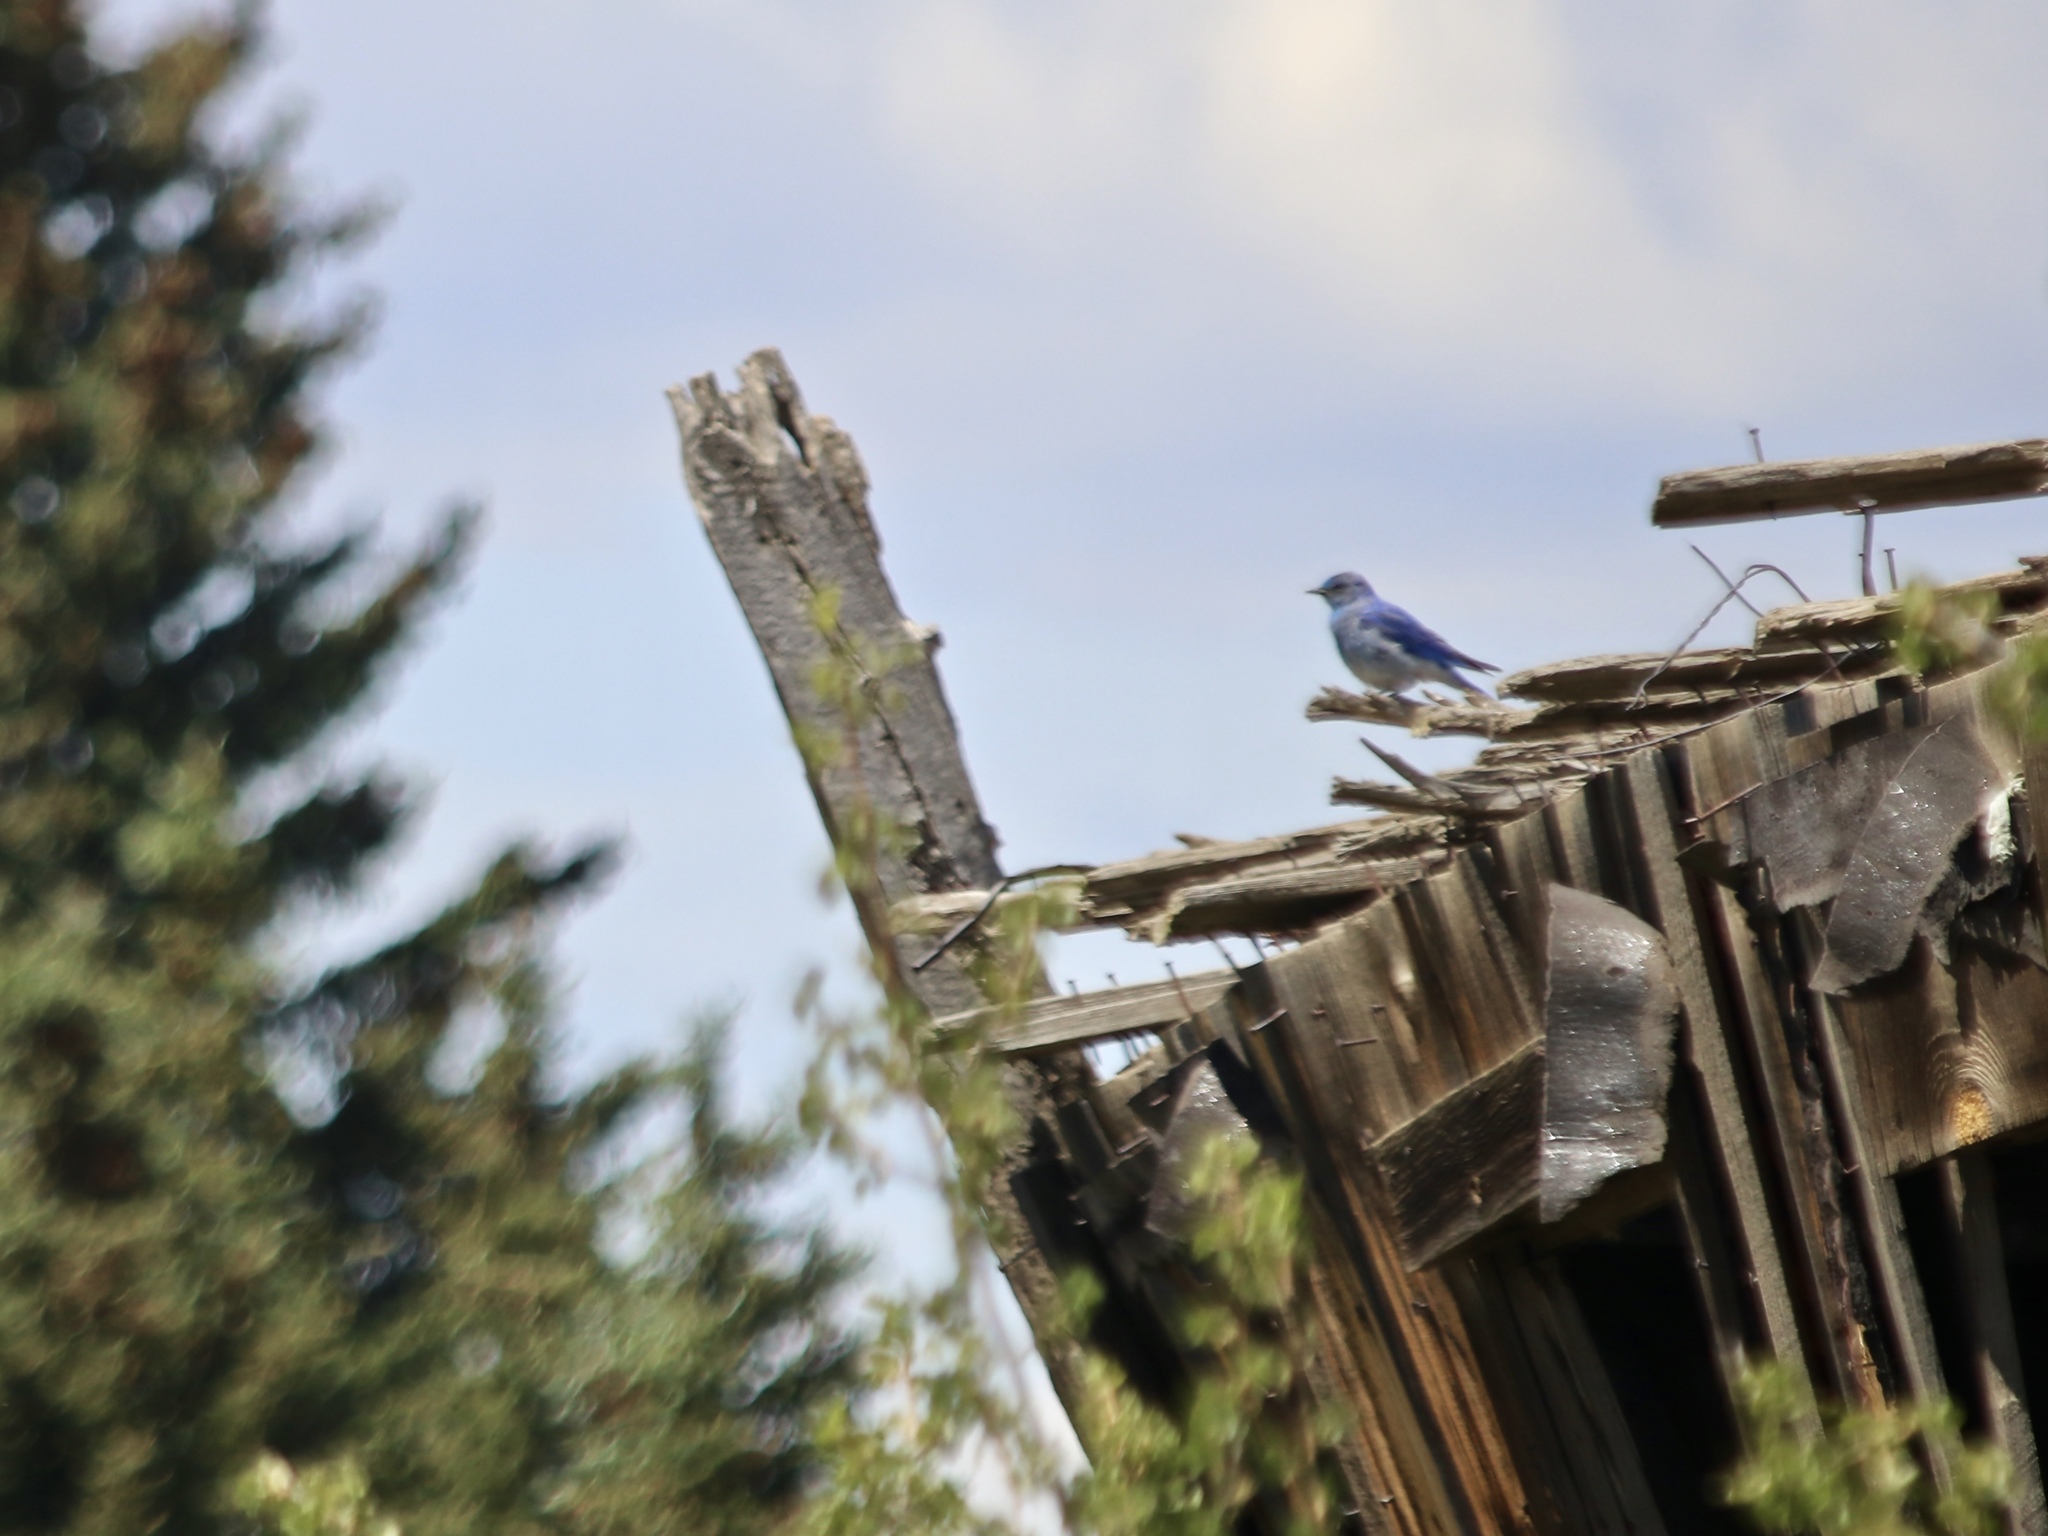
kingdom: Animalia
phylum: Chordata
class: Aves
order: Passeriformes
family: Turdidae
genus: Sialia
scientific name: Sialia currucoides
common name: Mountain bluebird
